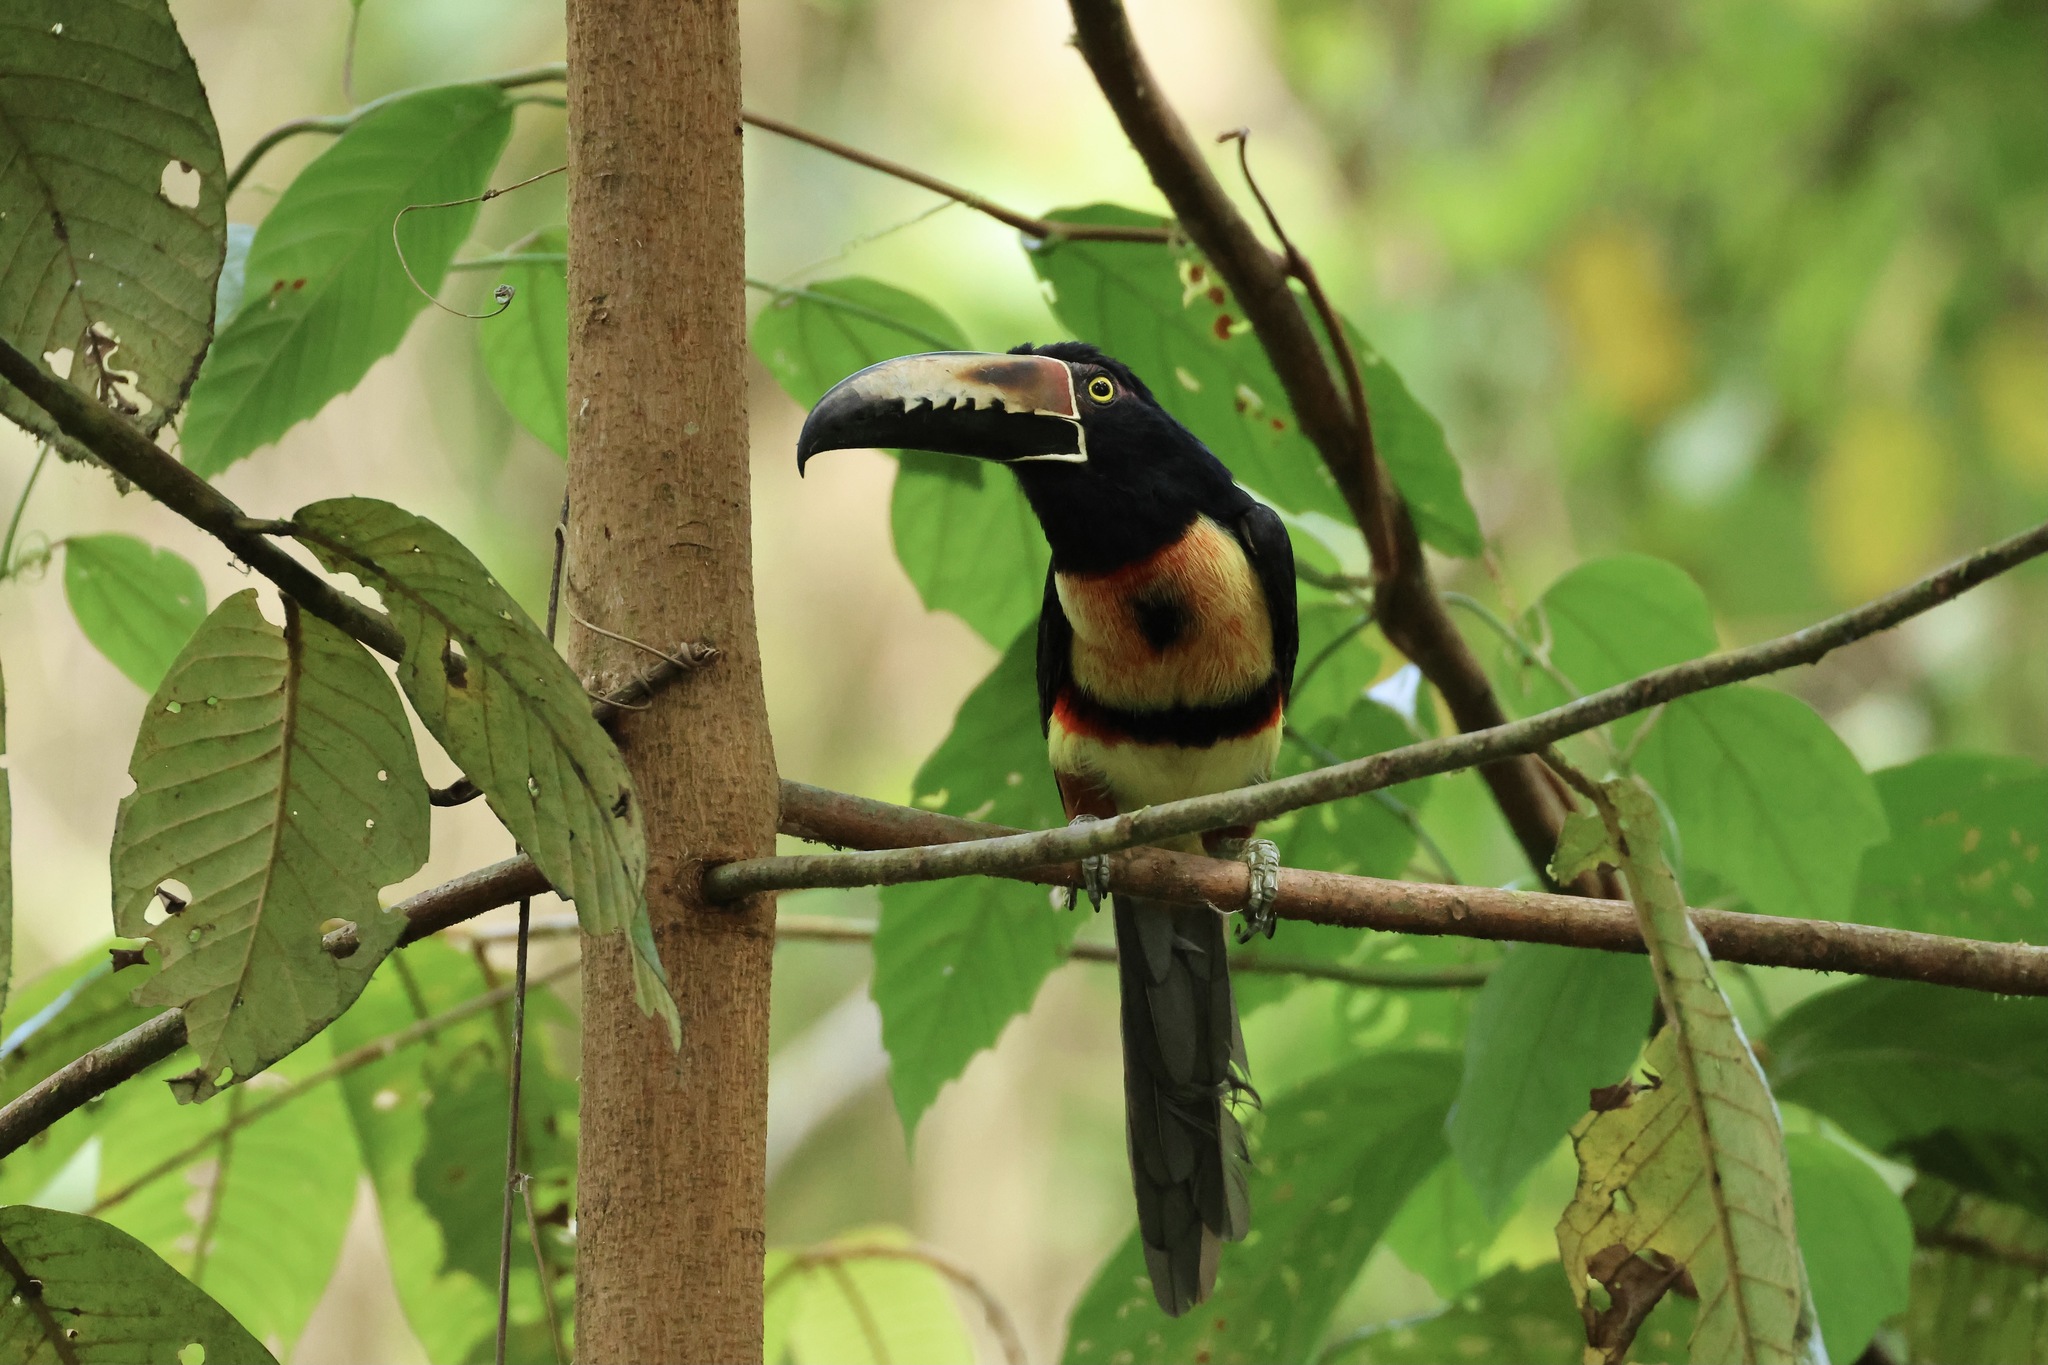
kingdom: Animalia
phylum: Chordata
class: Aves
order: Piciformes
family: Ramphastidae
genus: Pteroglossus
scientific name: Pteroglossus torquatus
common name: Collared aracari
